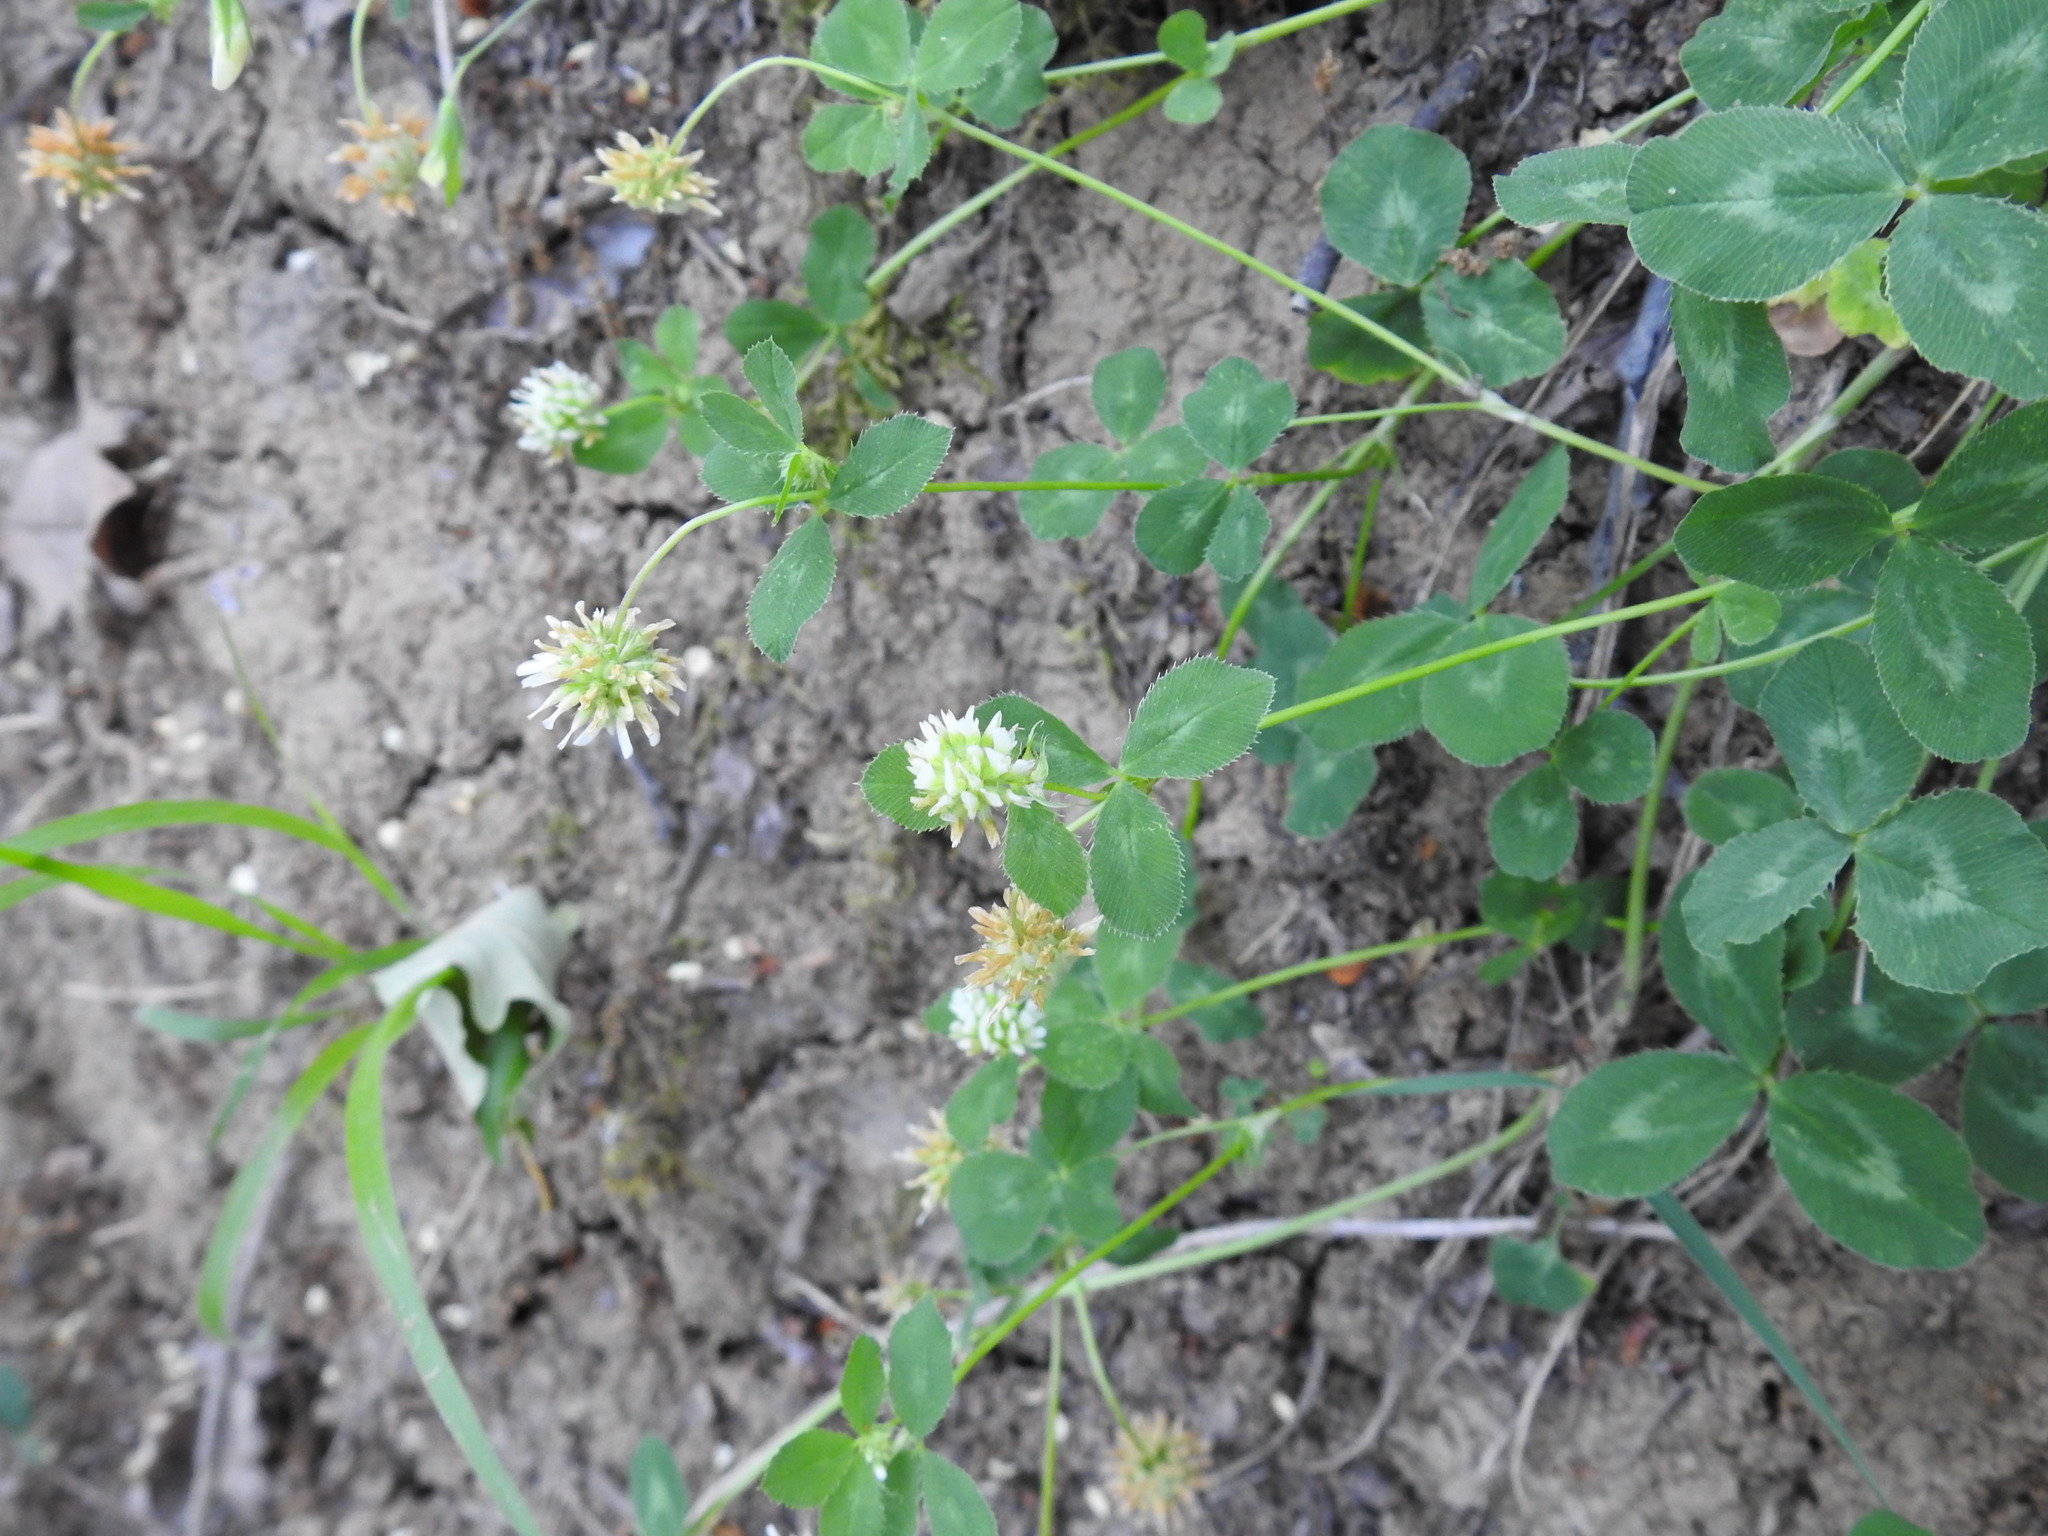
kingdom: Plantae
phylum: Tracheophyta
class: Magnoliopsida
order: Fabales
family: Fabaceae
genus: Trifolium
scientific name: Trifolium repens
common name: White clover
